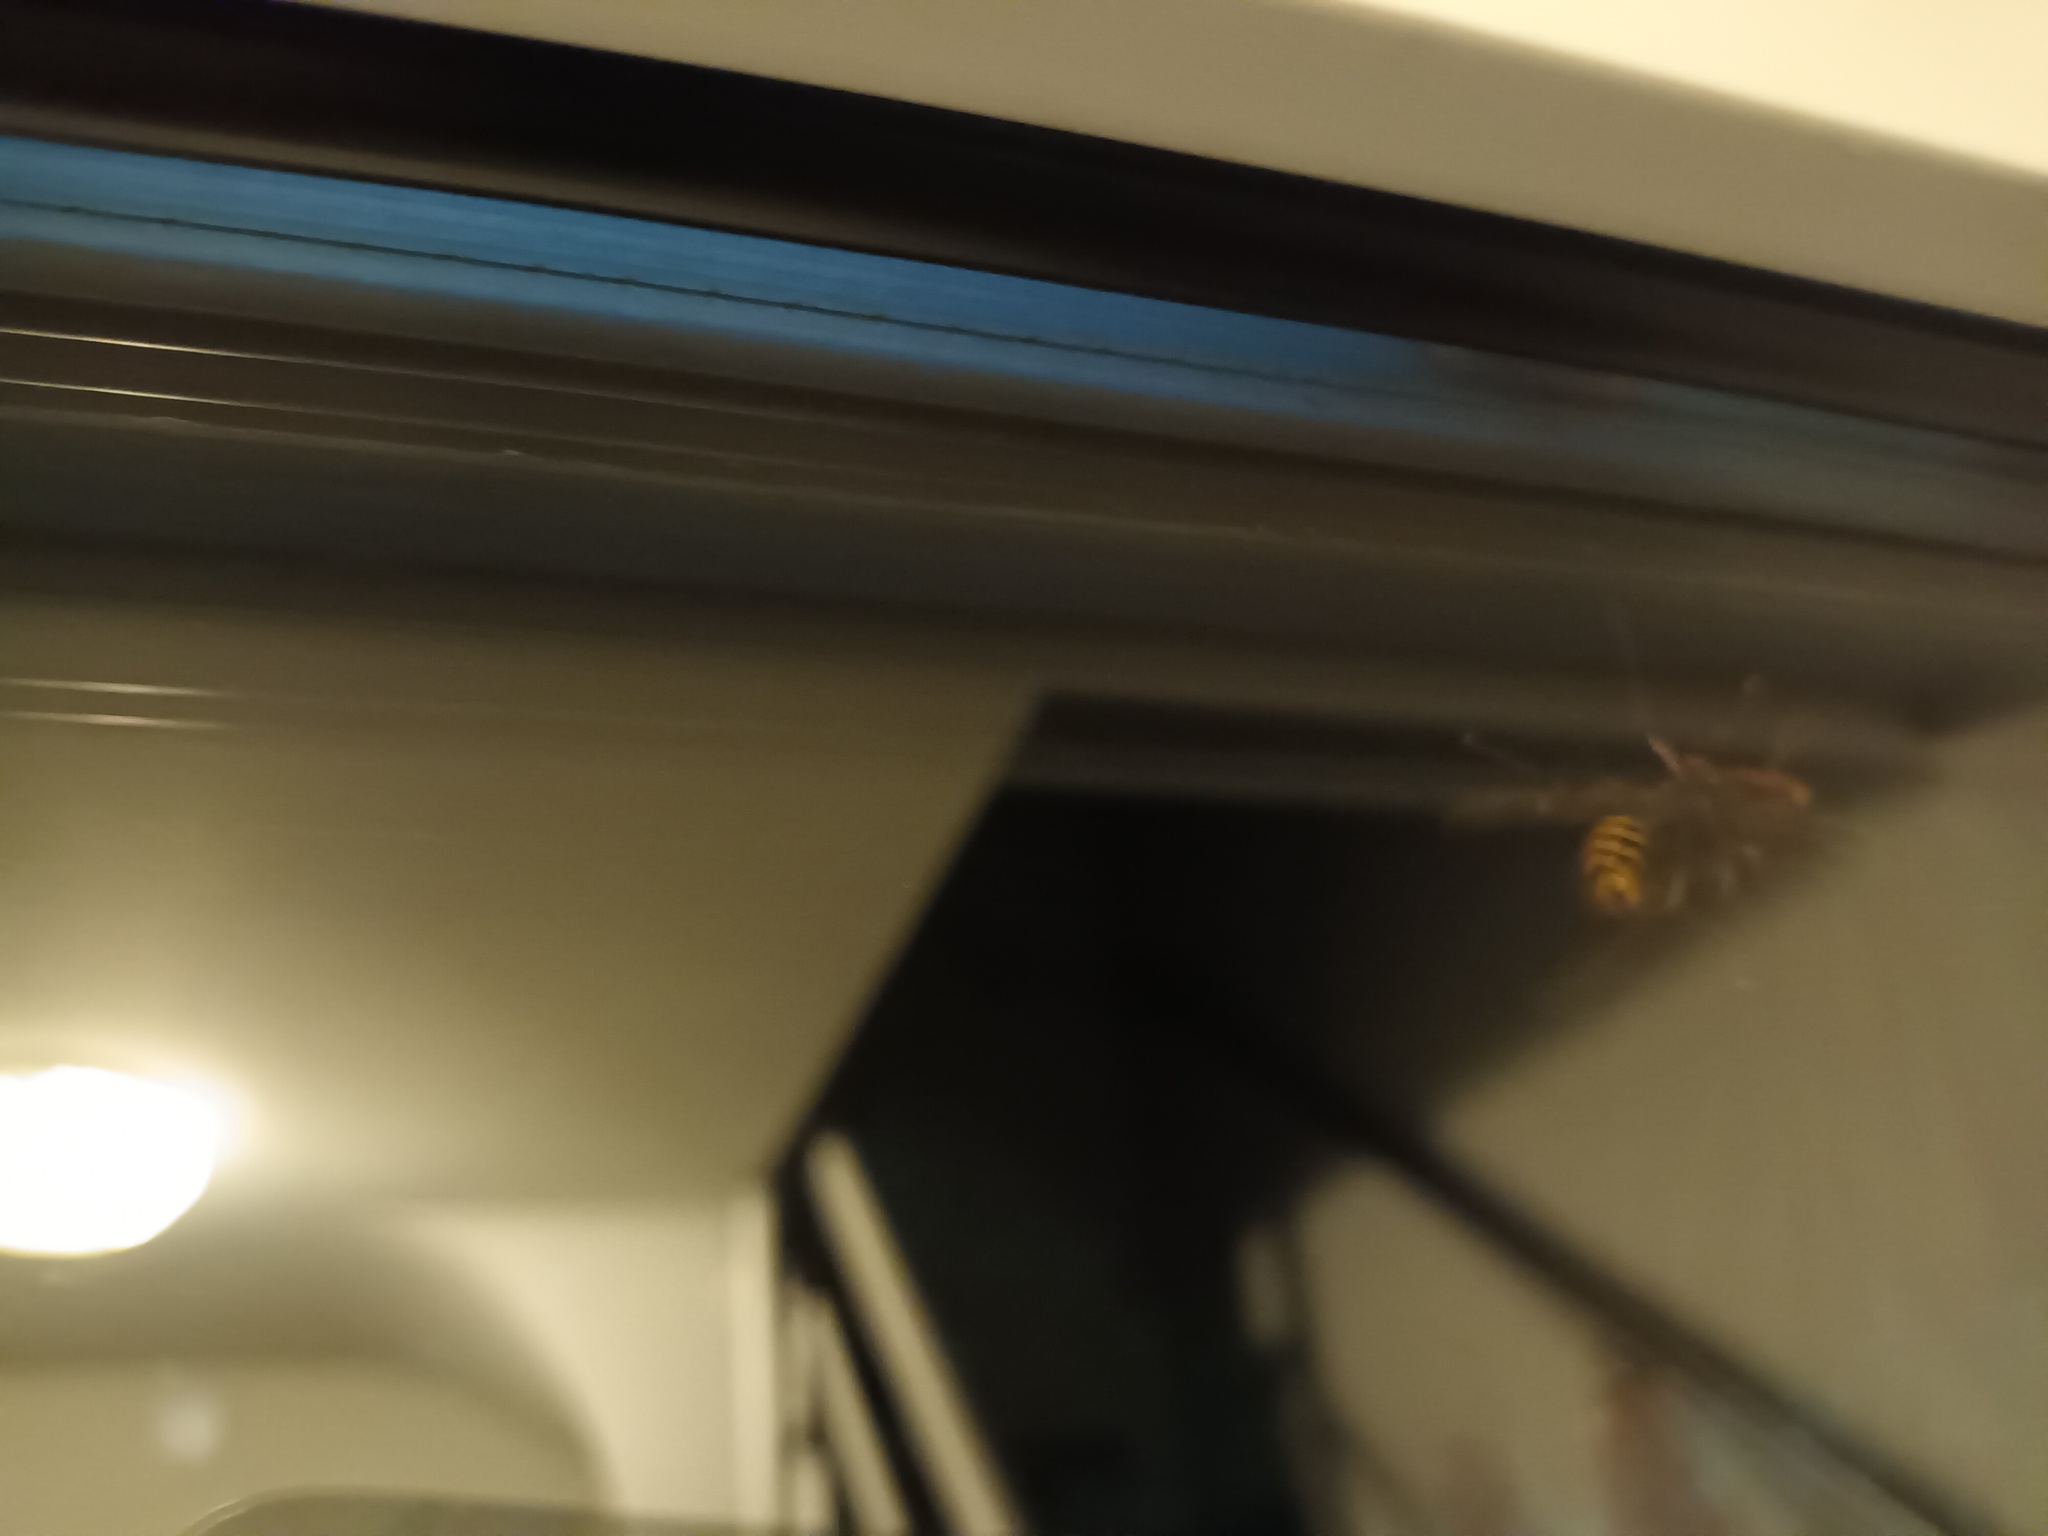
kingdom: Animalia
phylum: Arthropoda
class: Insecta
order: Hymenoptera
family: Vespidae
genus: Vespa
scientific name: Vespa crabro
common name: Hornet
